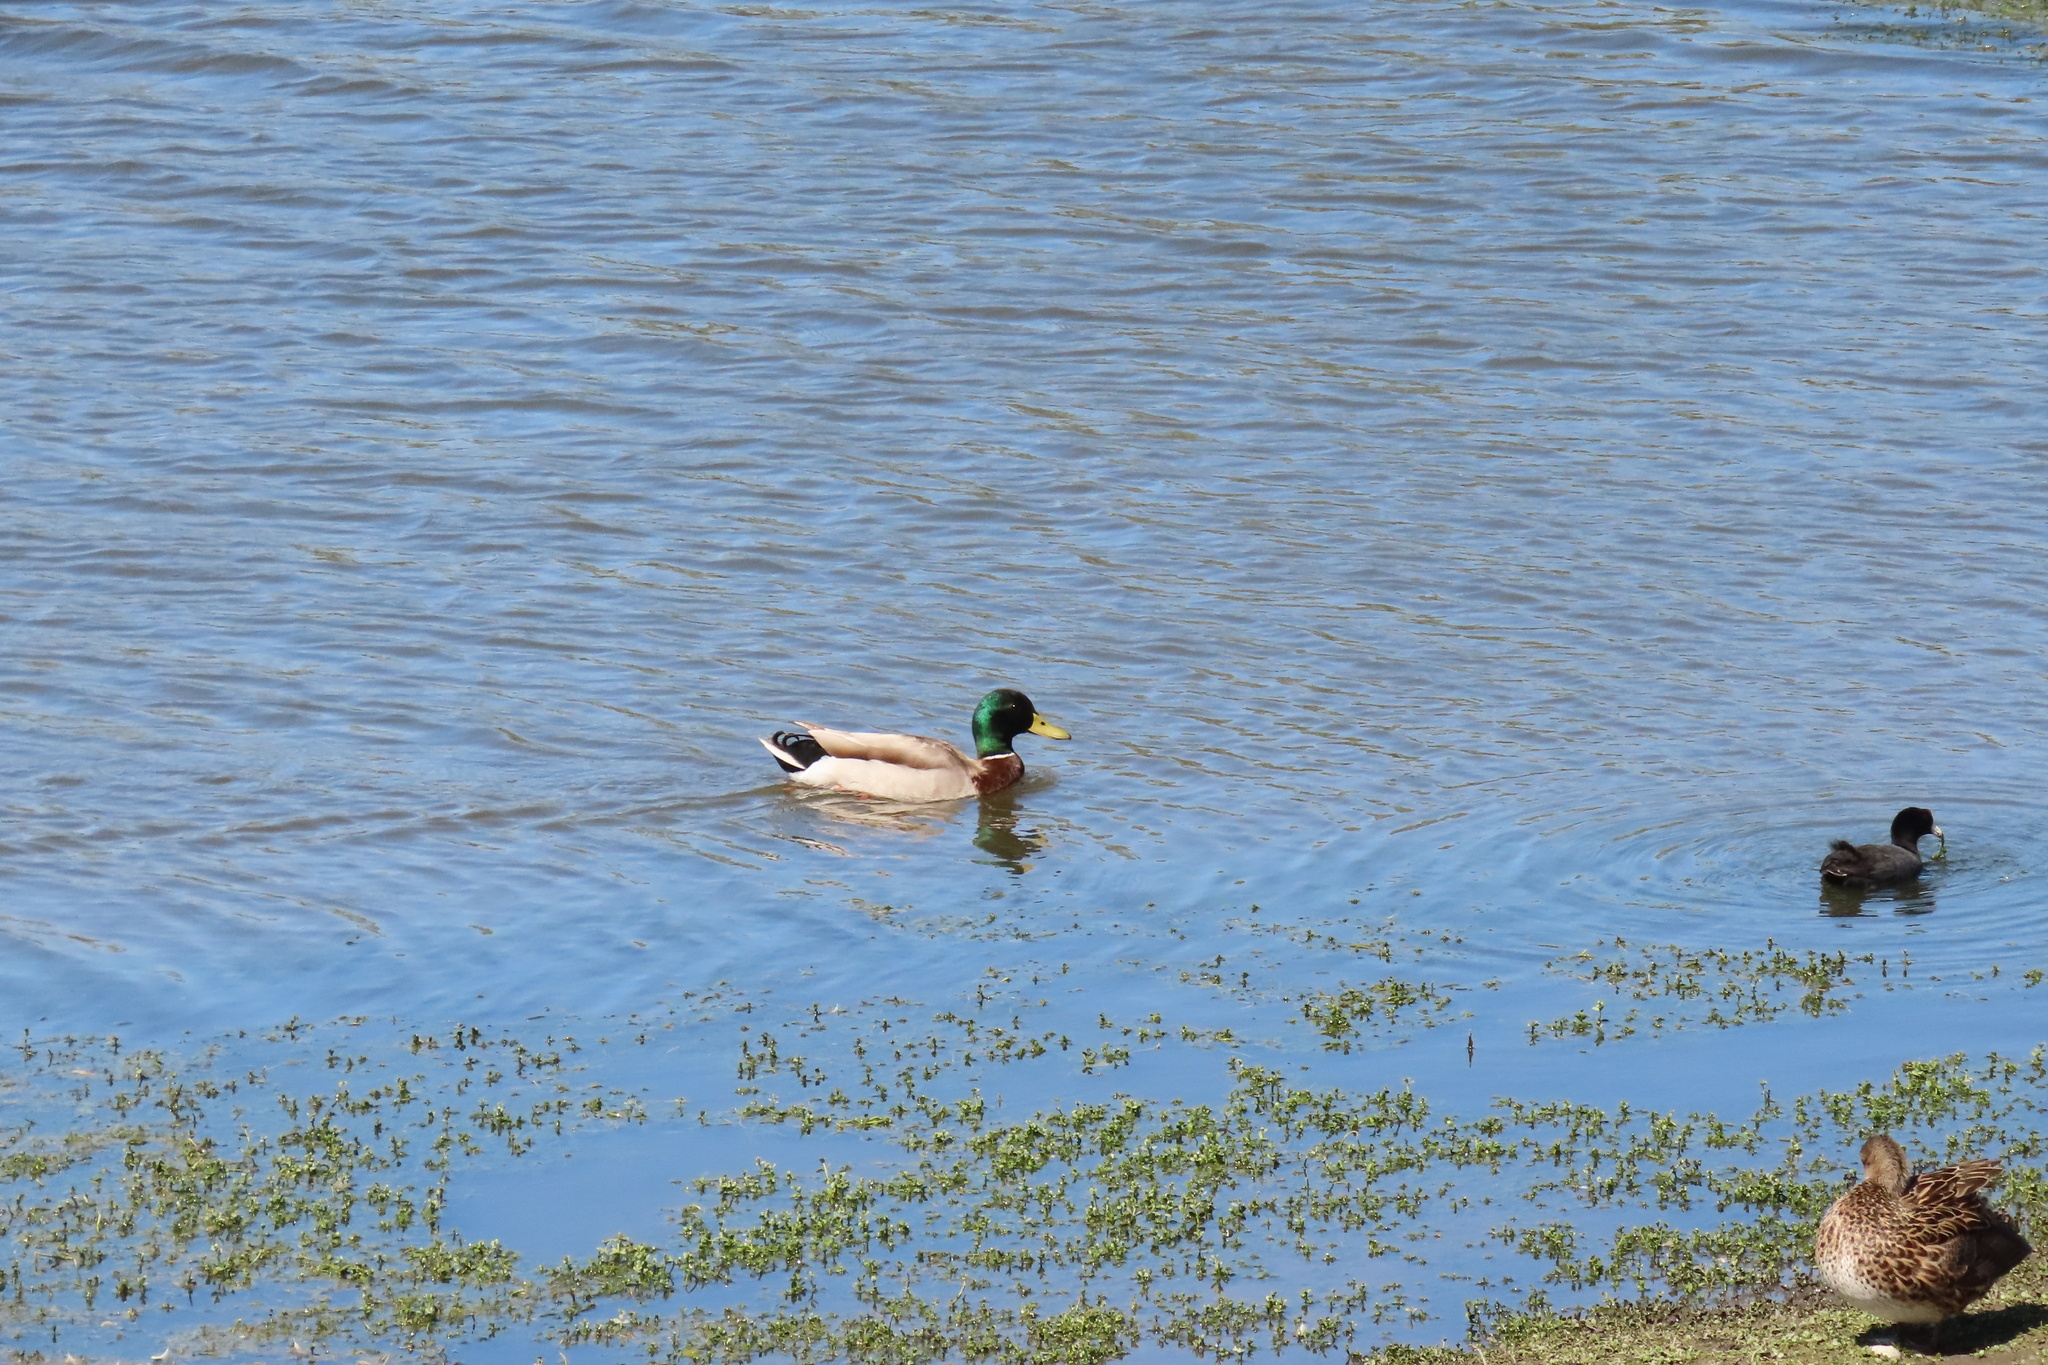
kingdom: Animalia
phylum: Chordata
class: Aves
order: Anseriformes
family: Anatidae
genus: Anas
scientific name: Anas platyrhynchos
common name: Mallard
